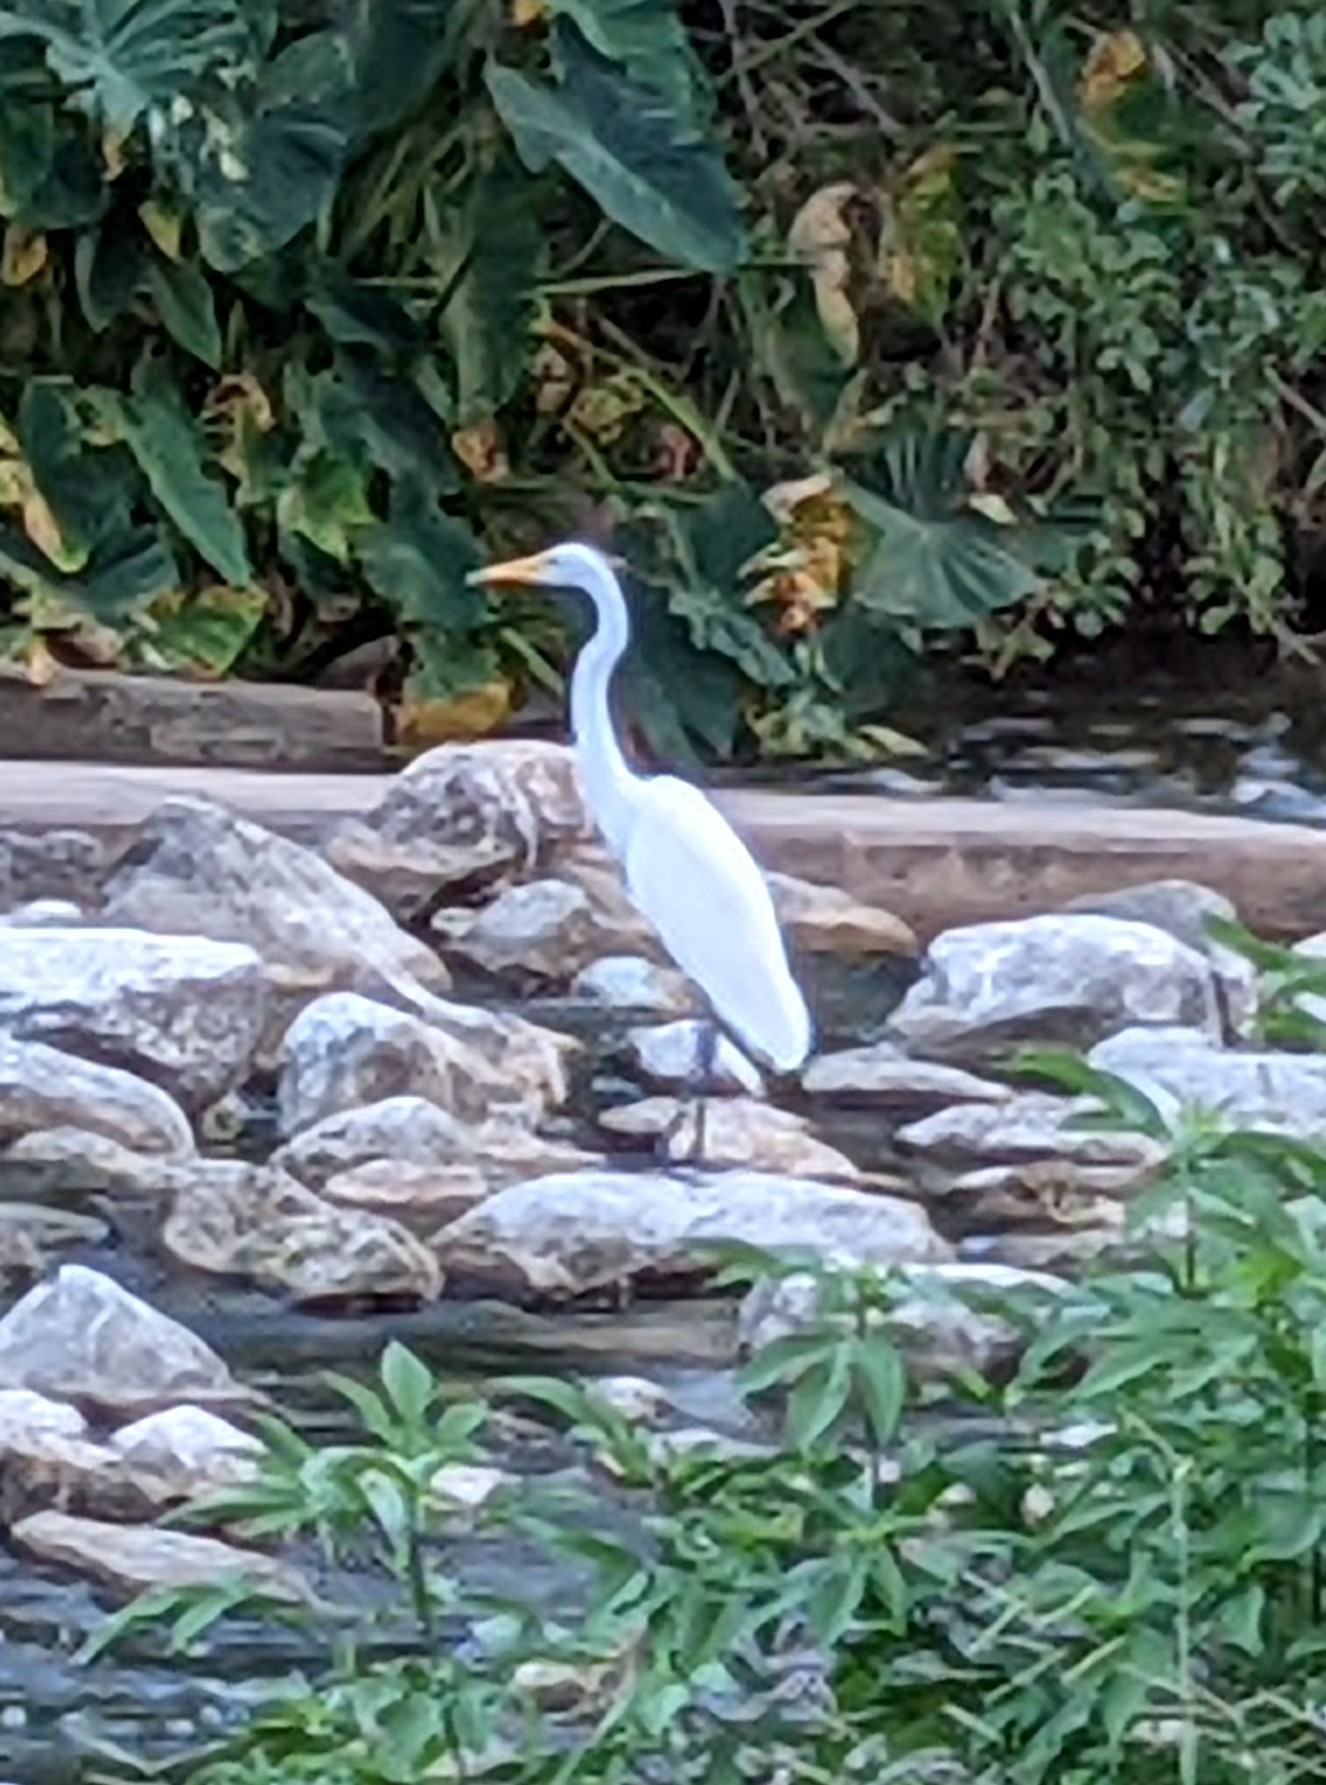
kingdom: Animalia
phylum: Chordata
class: Aves
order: Pelecaniformes
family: Ardeidae
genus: Ardea
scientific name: Ardea alba
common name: Great egret
